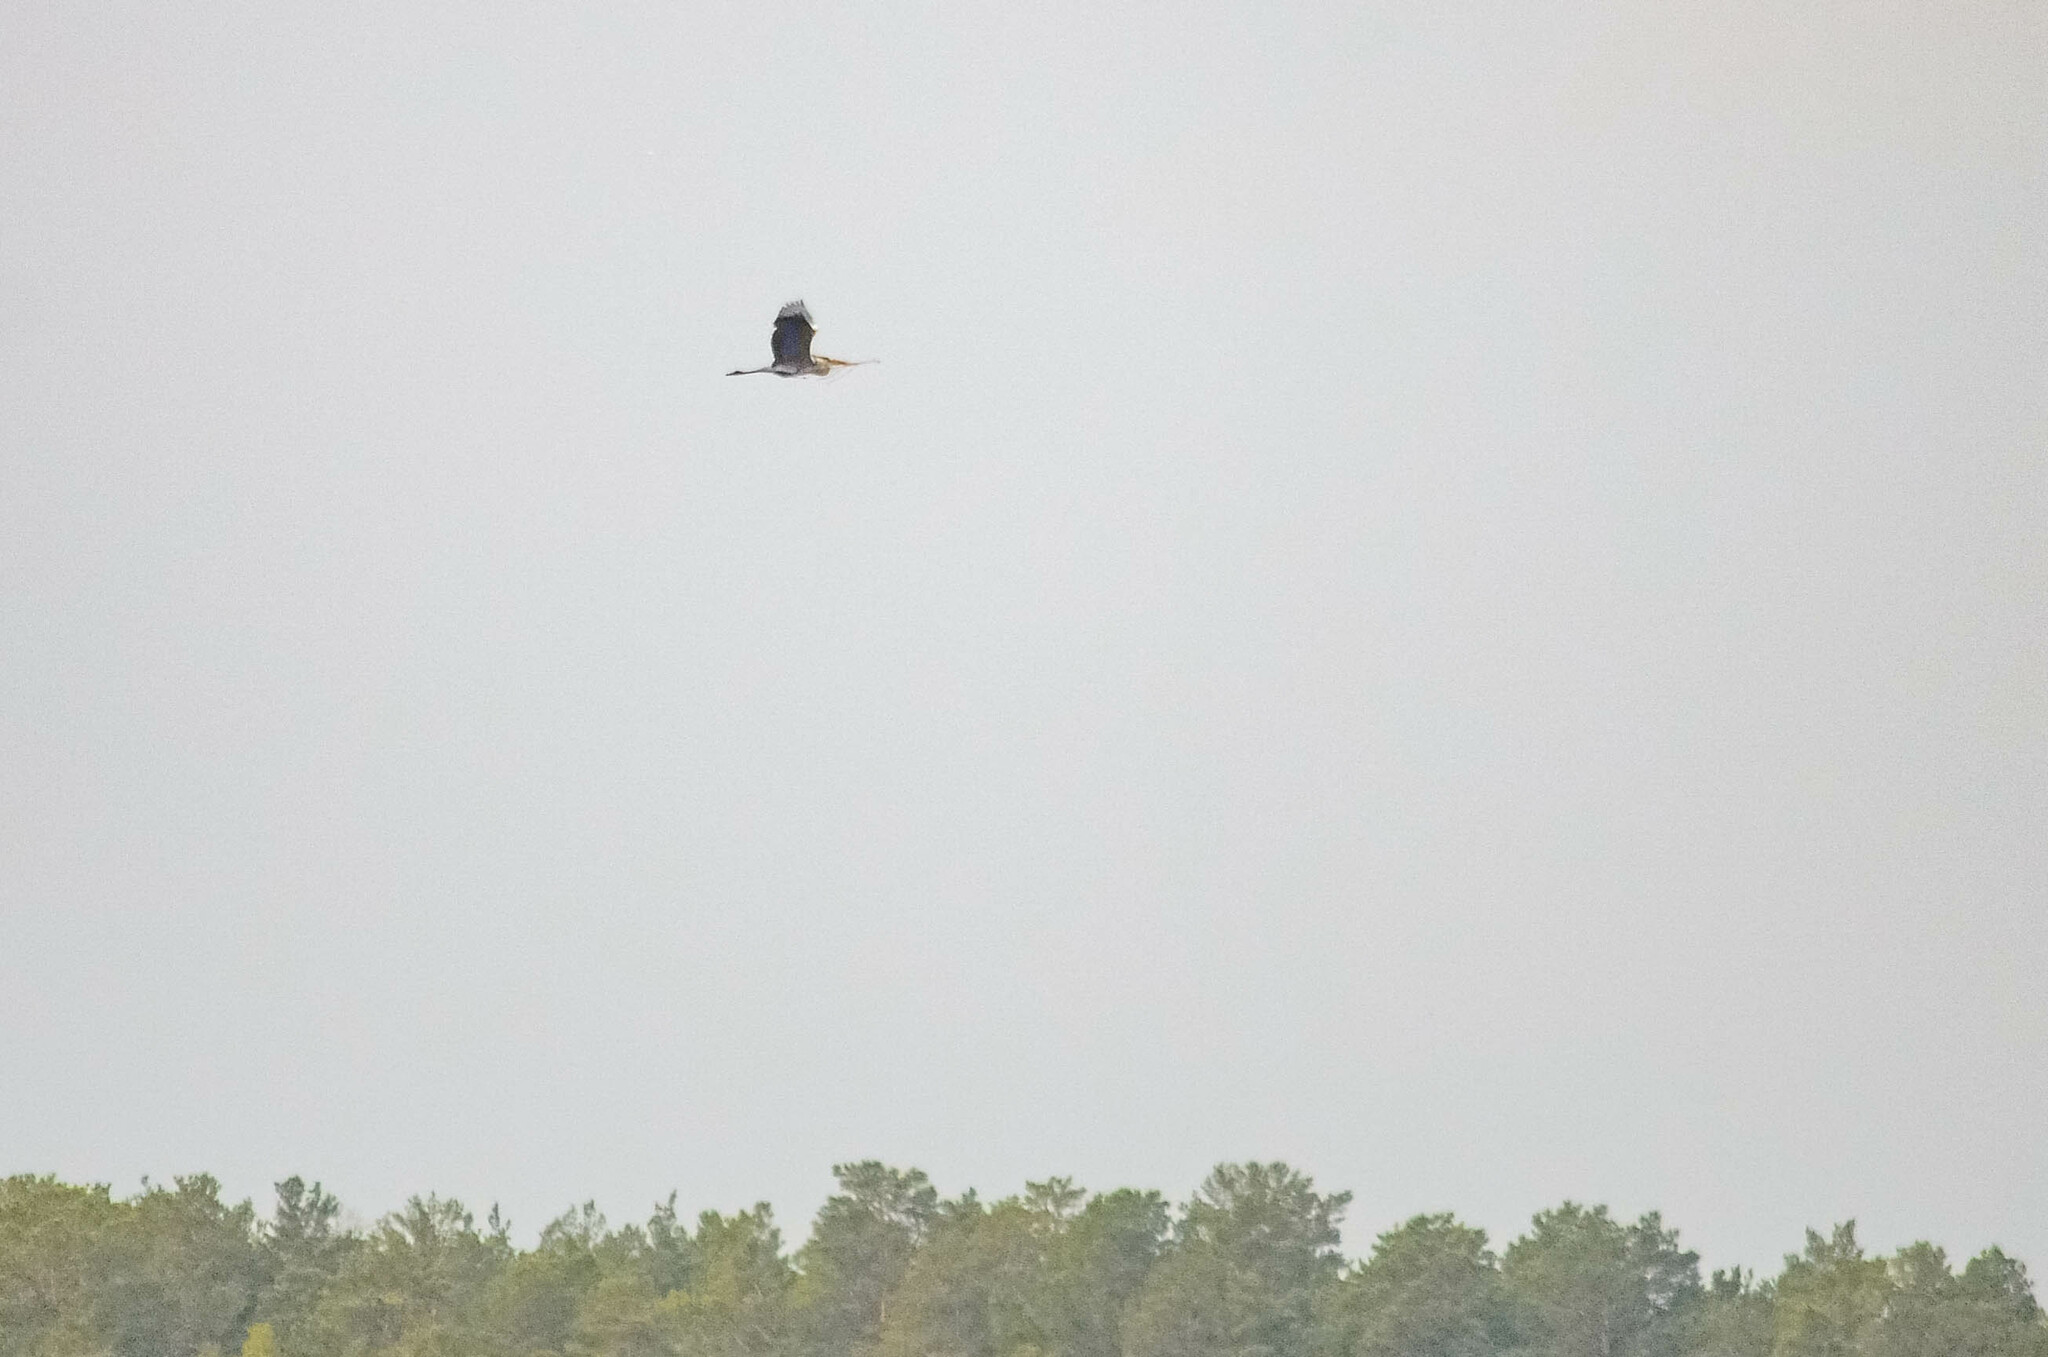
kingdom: Animalia
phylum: Chordata
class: Aves
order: Pelecaniformes
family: Ardeidae
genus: Ardea
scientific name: Ardea cinerea
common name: Grey heron
